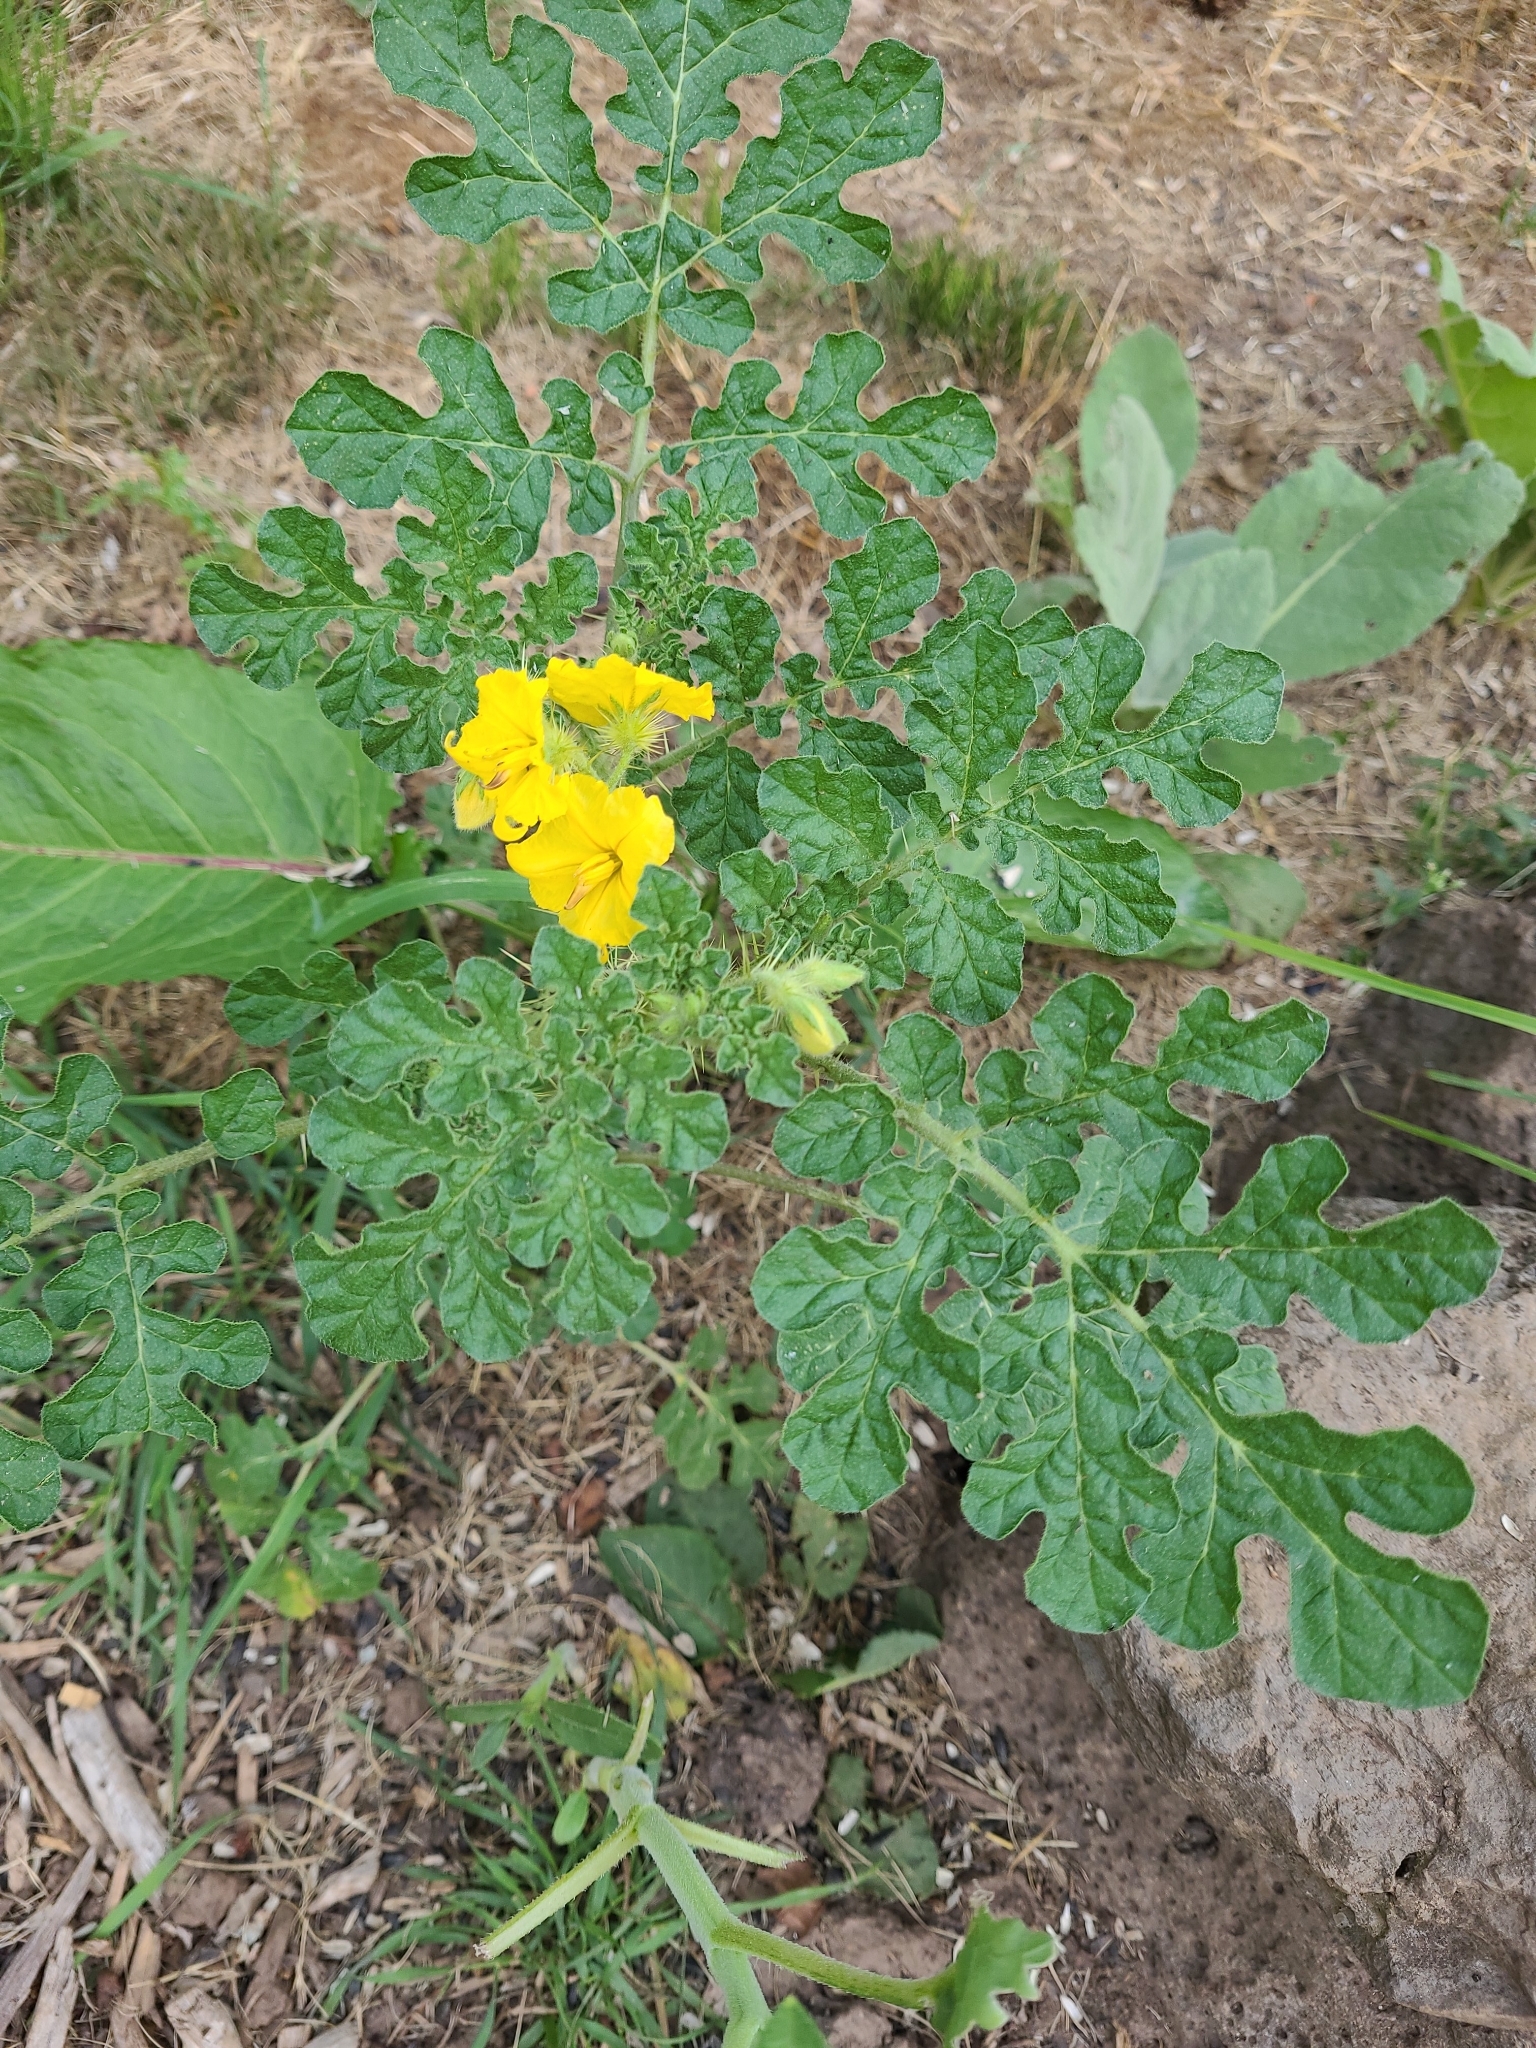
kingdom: Plantae
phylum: Tracheophyta
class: Magnoliopsida
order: Solanales
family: Solanaceae
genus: Solanum
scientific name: Solanum angustifolium
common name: Buffalobur nightshade
